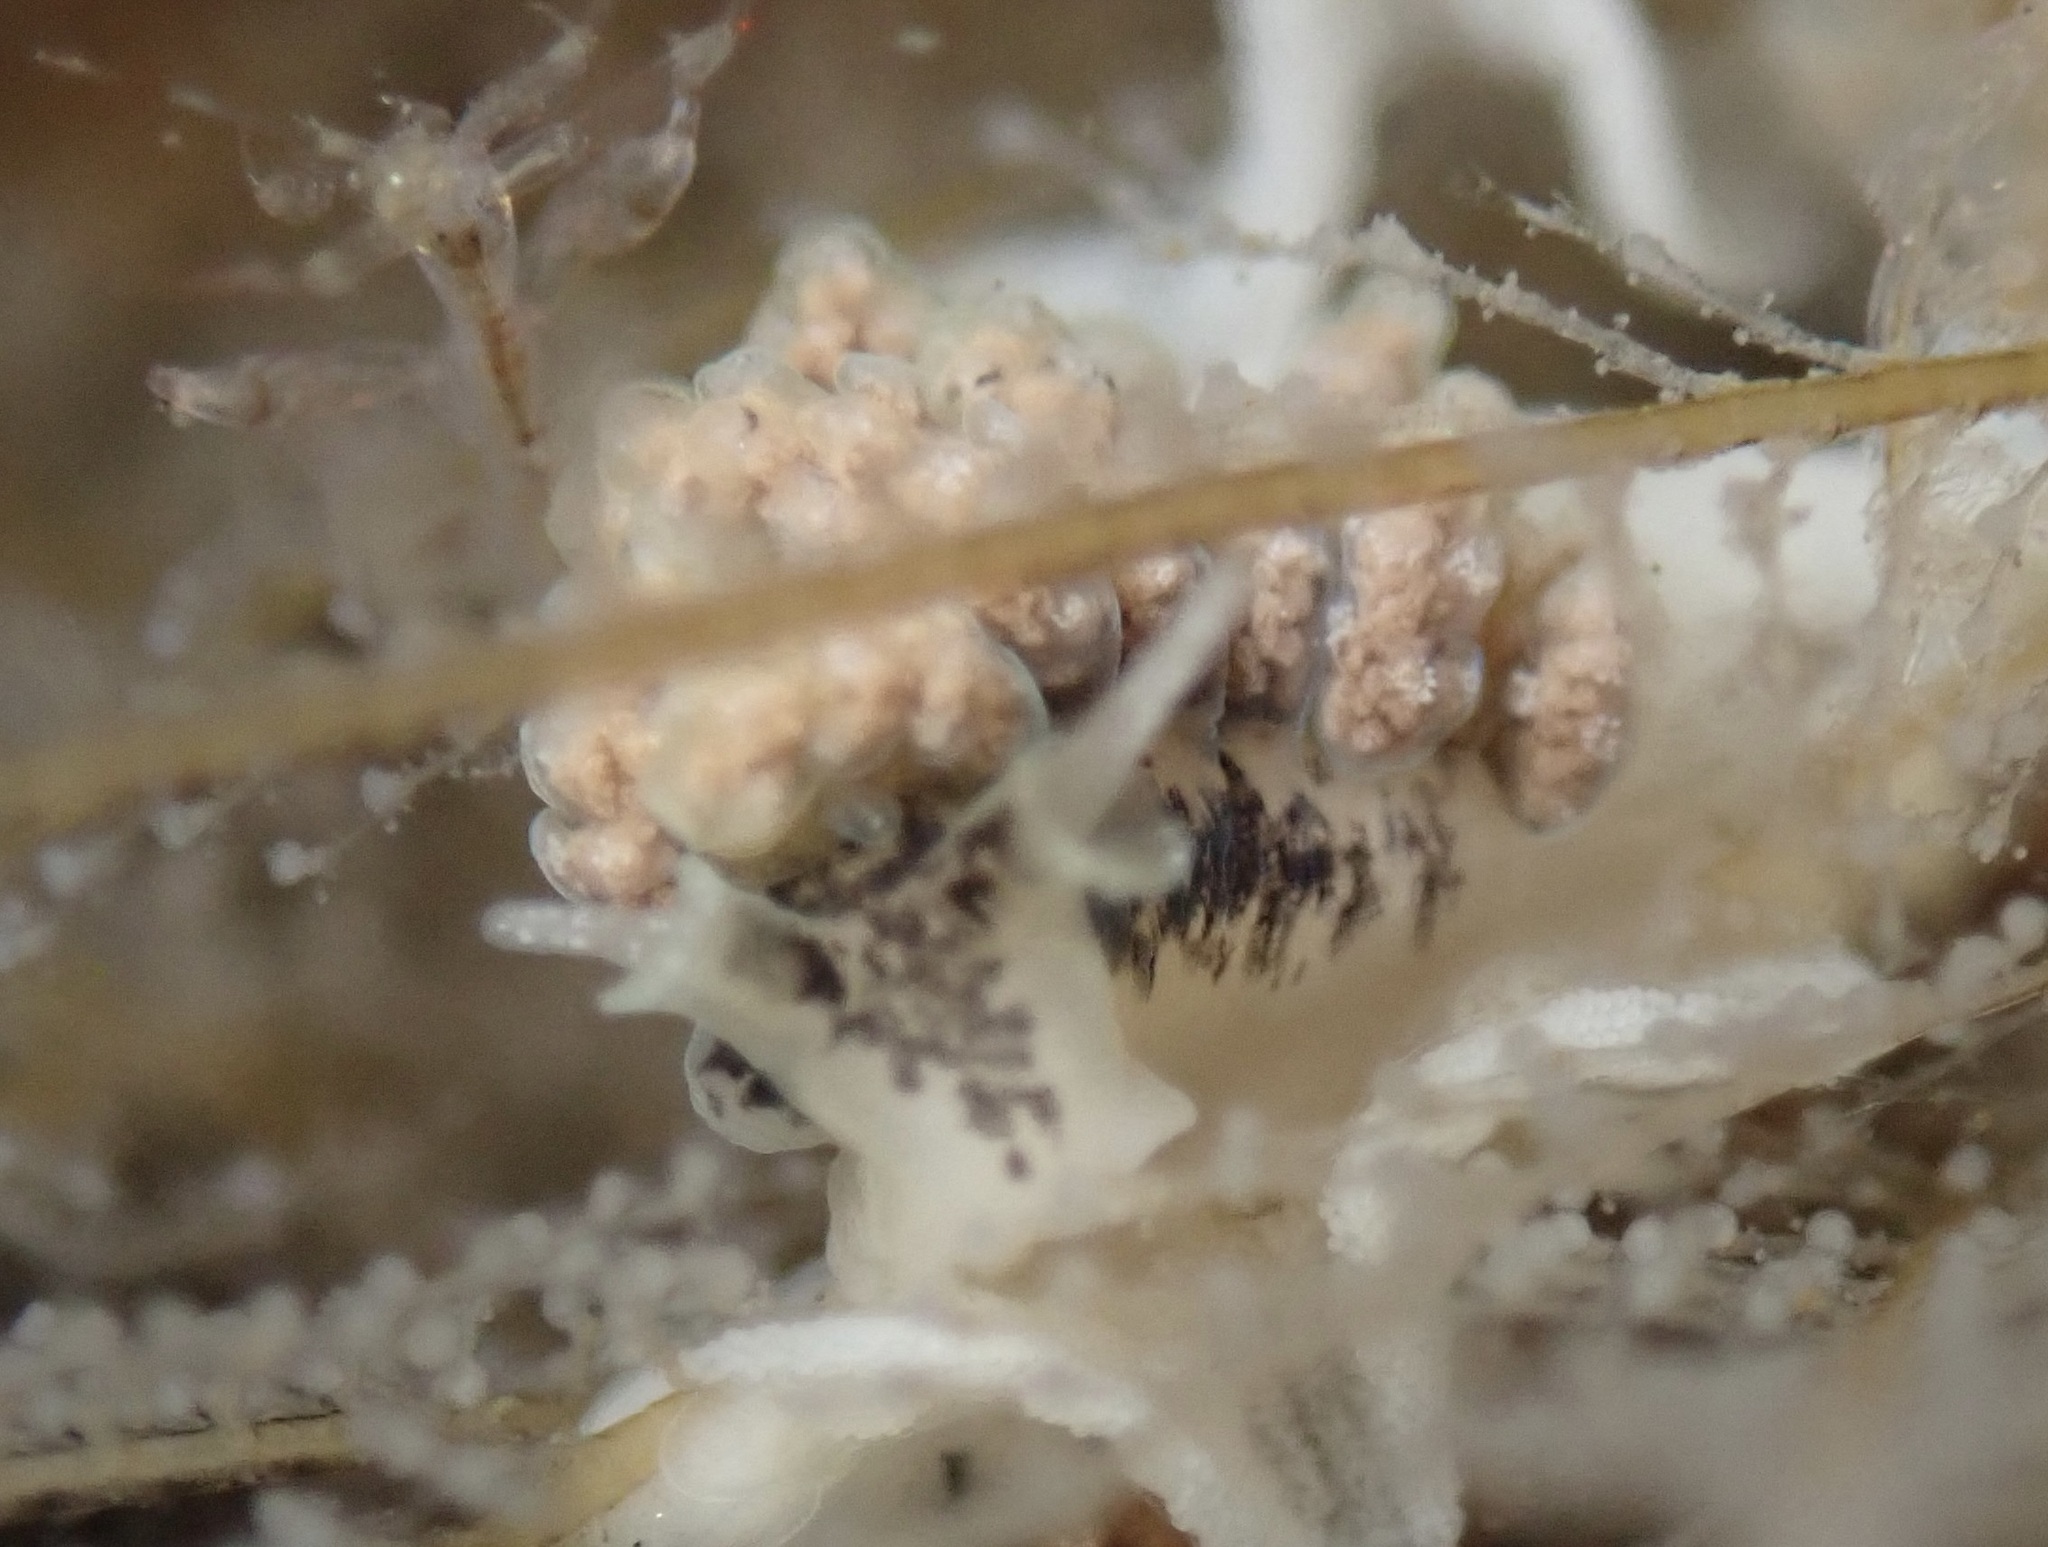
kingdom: Animalia
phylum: Mollusca
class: Gastropoda
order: Nudibranchia
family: Dotidae
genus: Doto
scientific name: Doto kya
